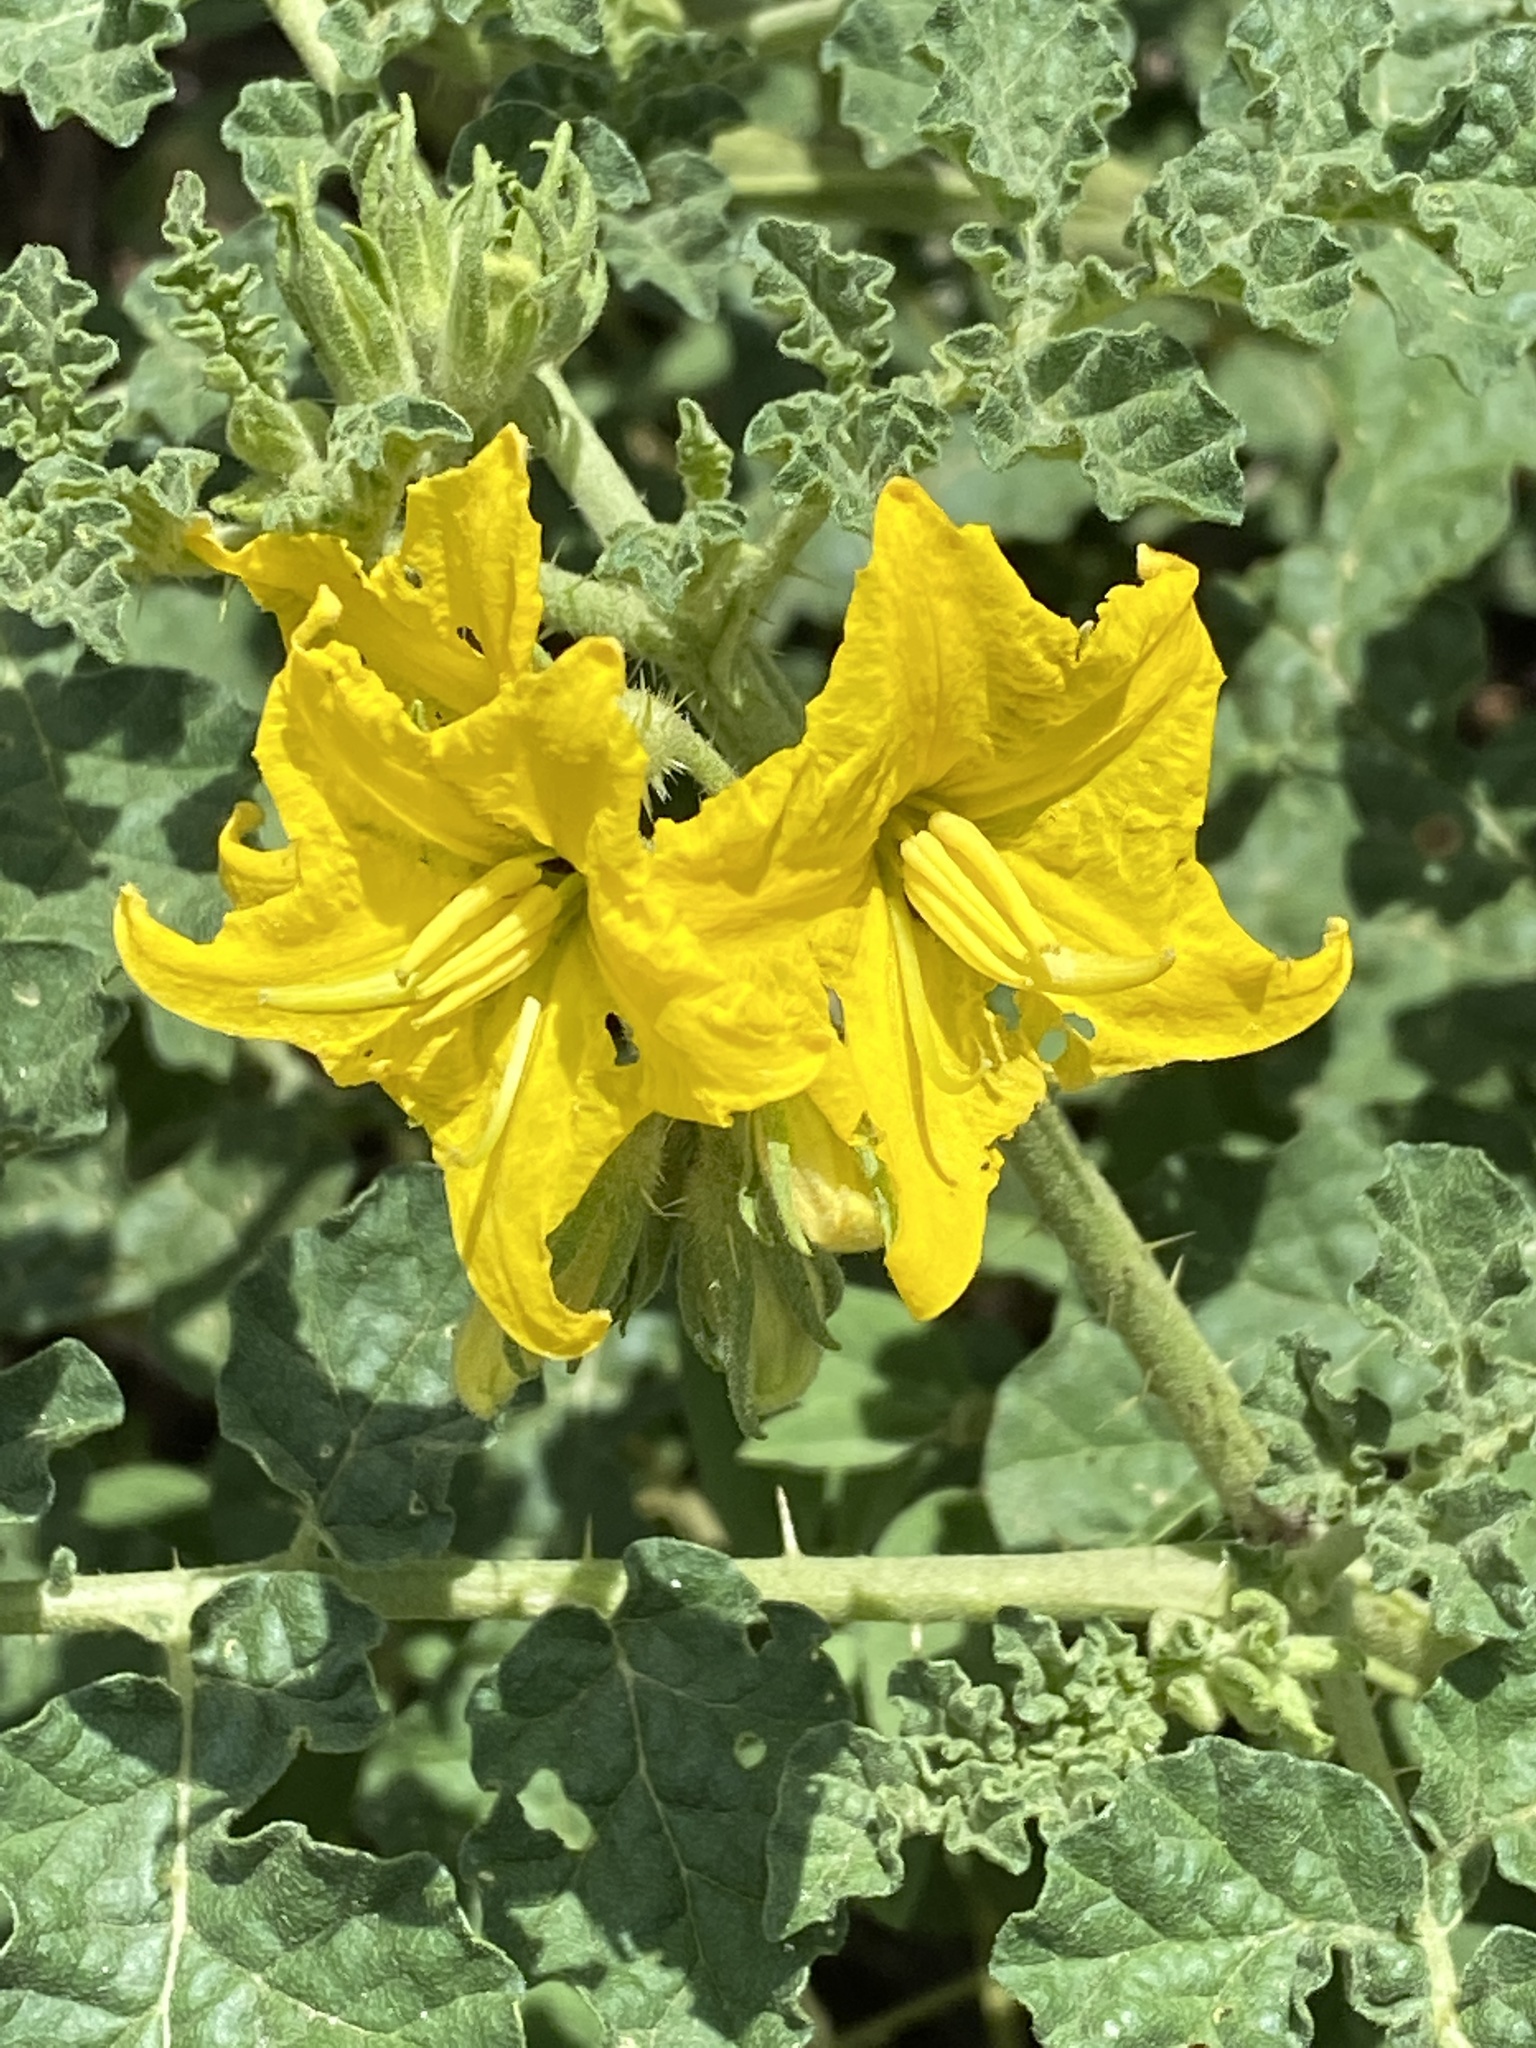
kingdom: Plantae
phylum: Tracheophyta
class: Magnoliopsida
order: Solanales
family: Solanaceae
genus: Solanum
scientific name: Solanum angustifolium
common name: Buffalobur nightshade
